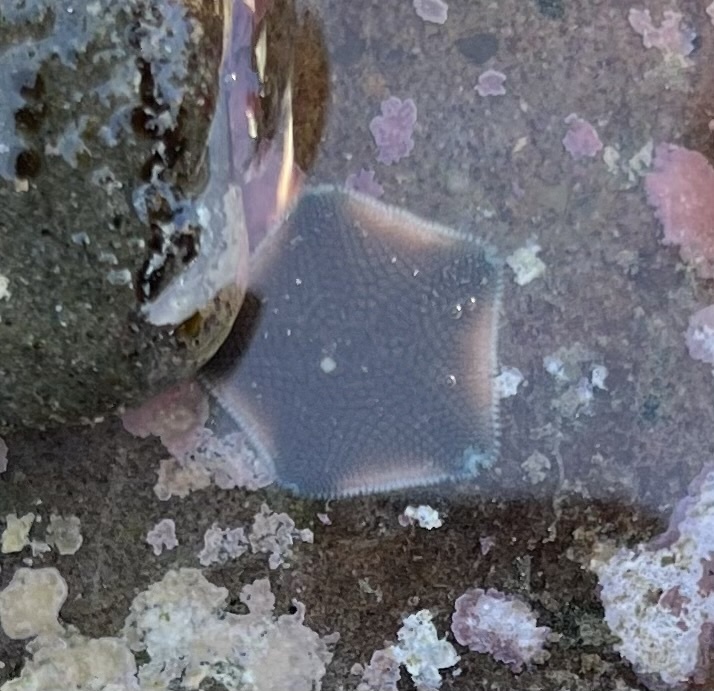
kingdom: Animalia
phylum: Echinodermata
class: Asteroidea
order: Valvatida
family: Asterinidae
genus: Patiriella
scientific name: Patiriella regularis
